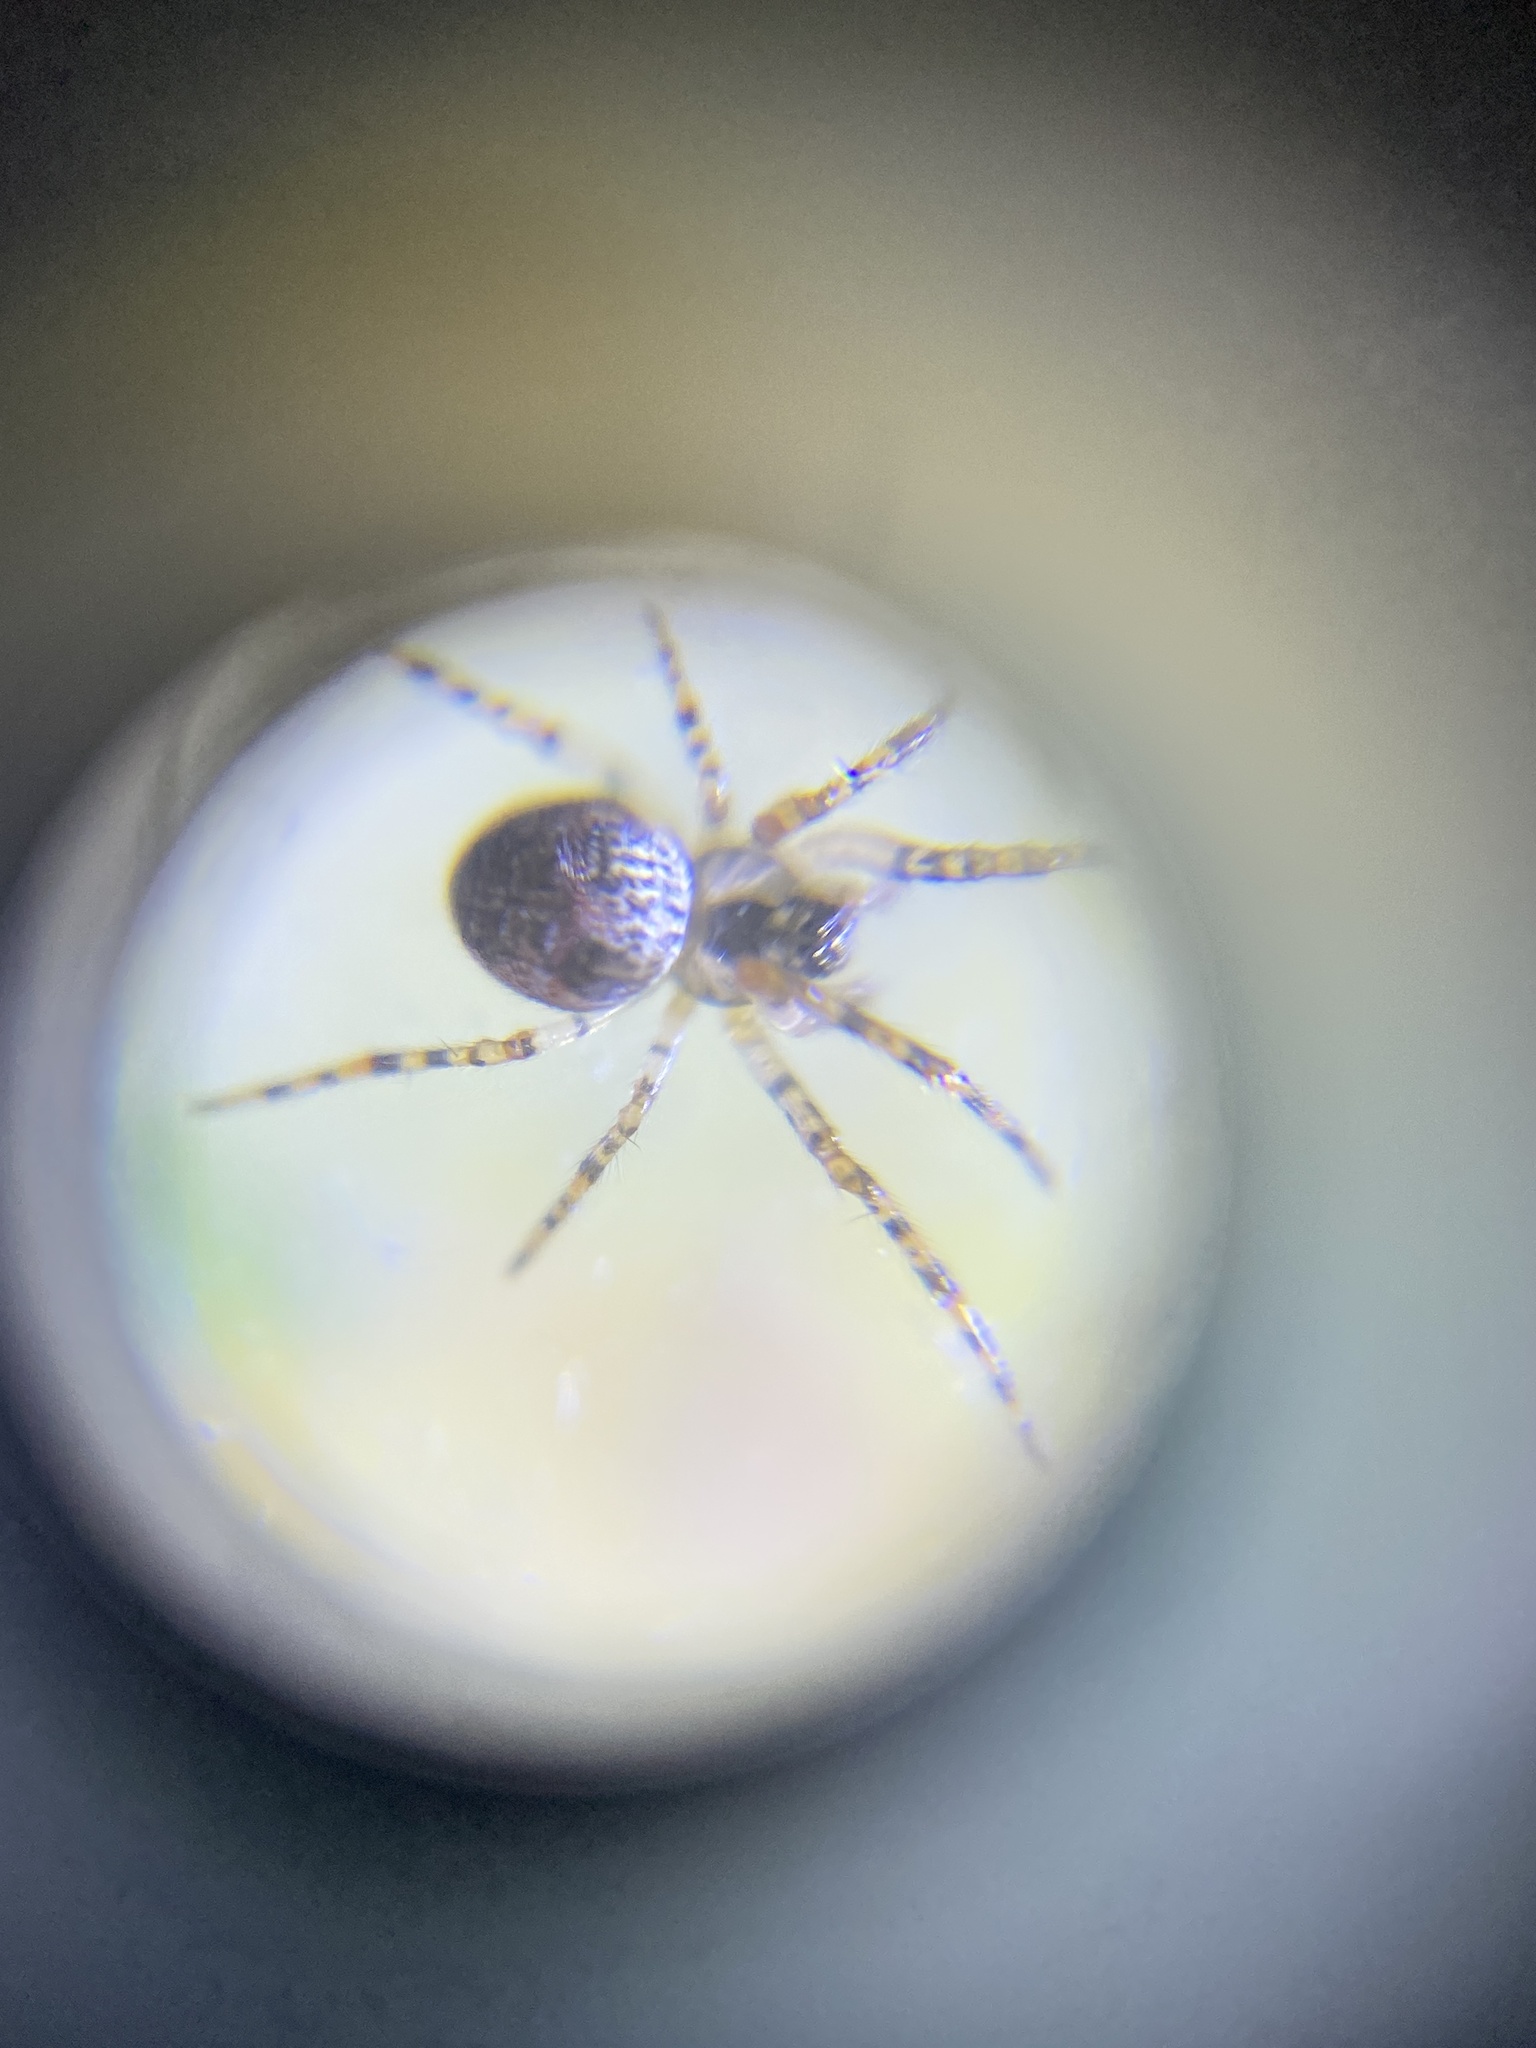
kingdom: Animalia
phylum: Arthropoda
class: Arachnida
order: Araneae
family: Tetragnathidae
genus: Metellina
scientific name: Metellina merianae
